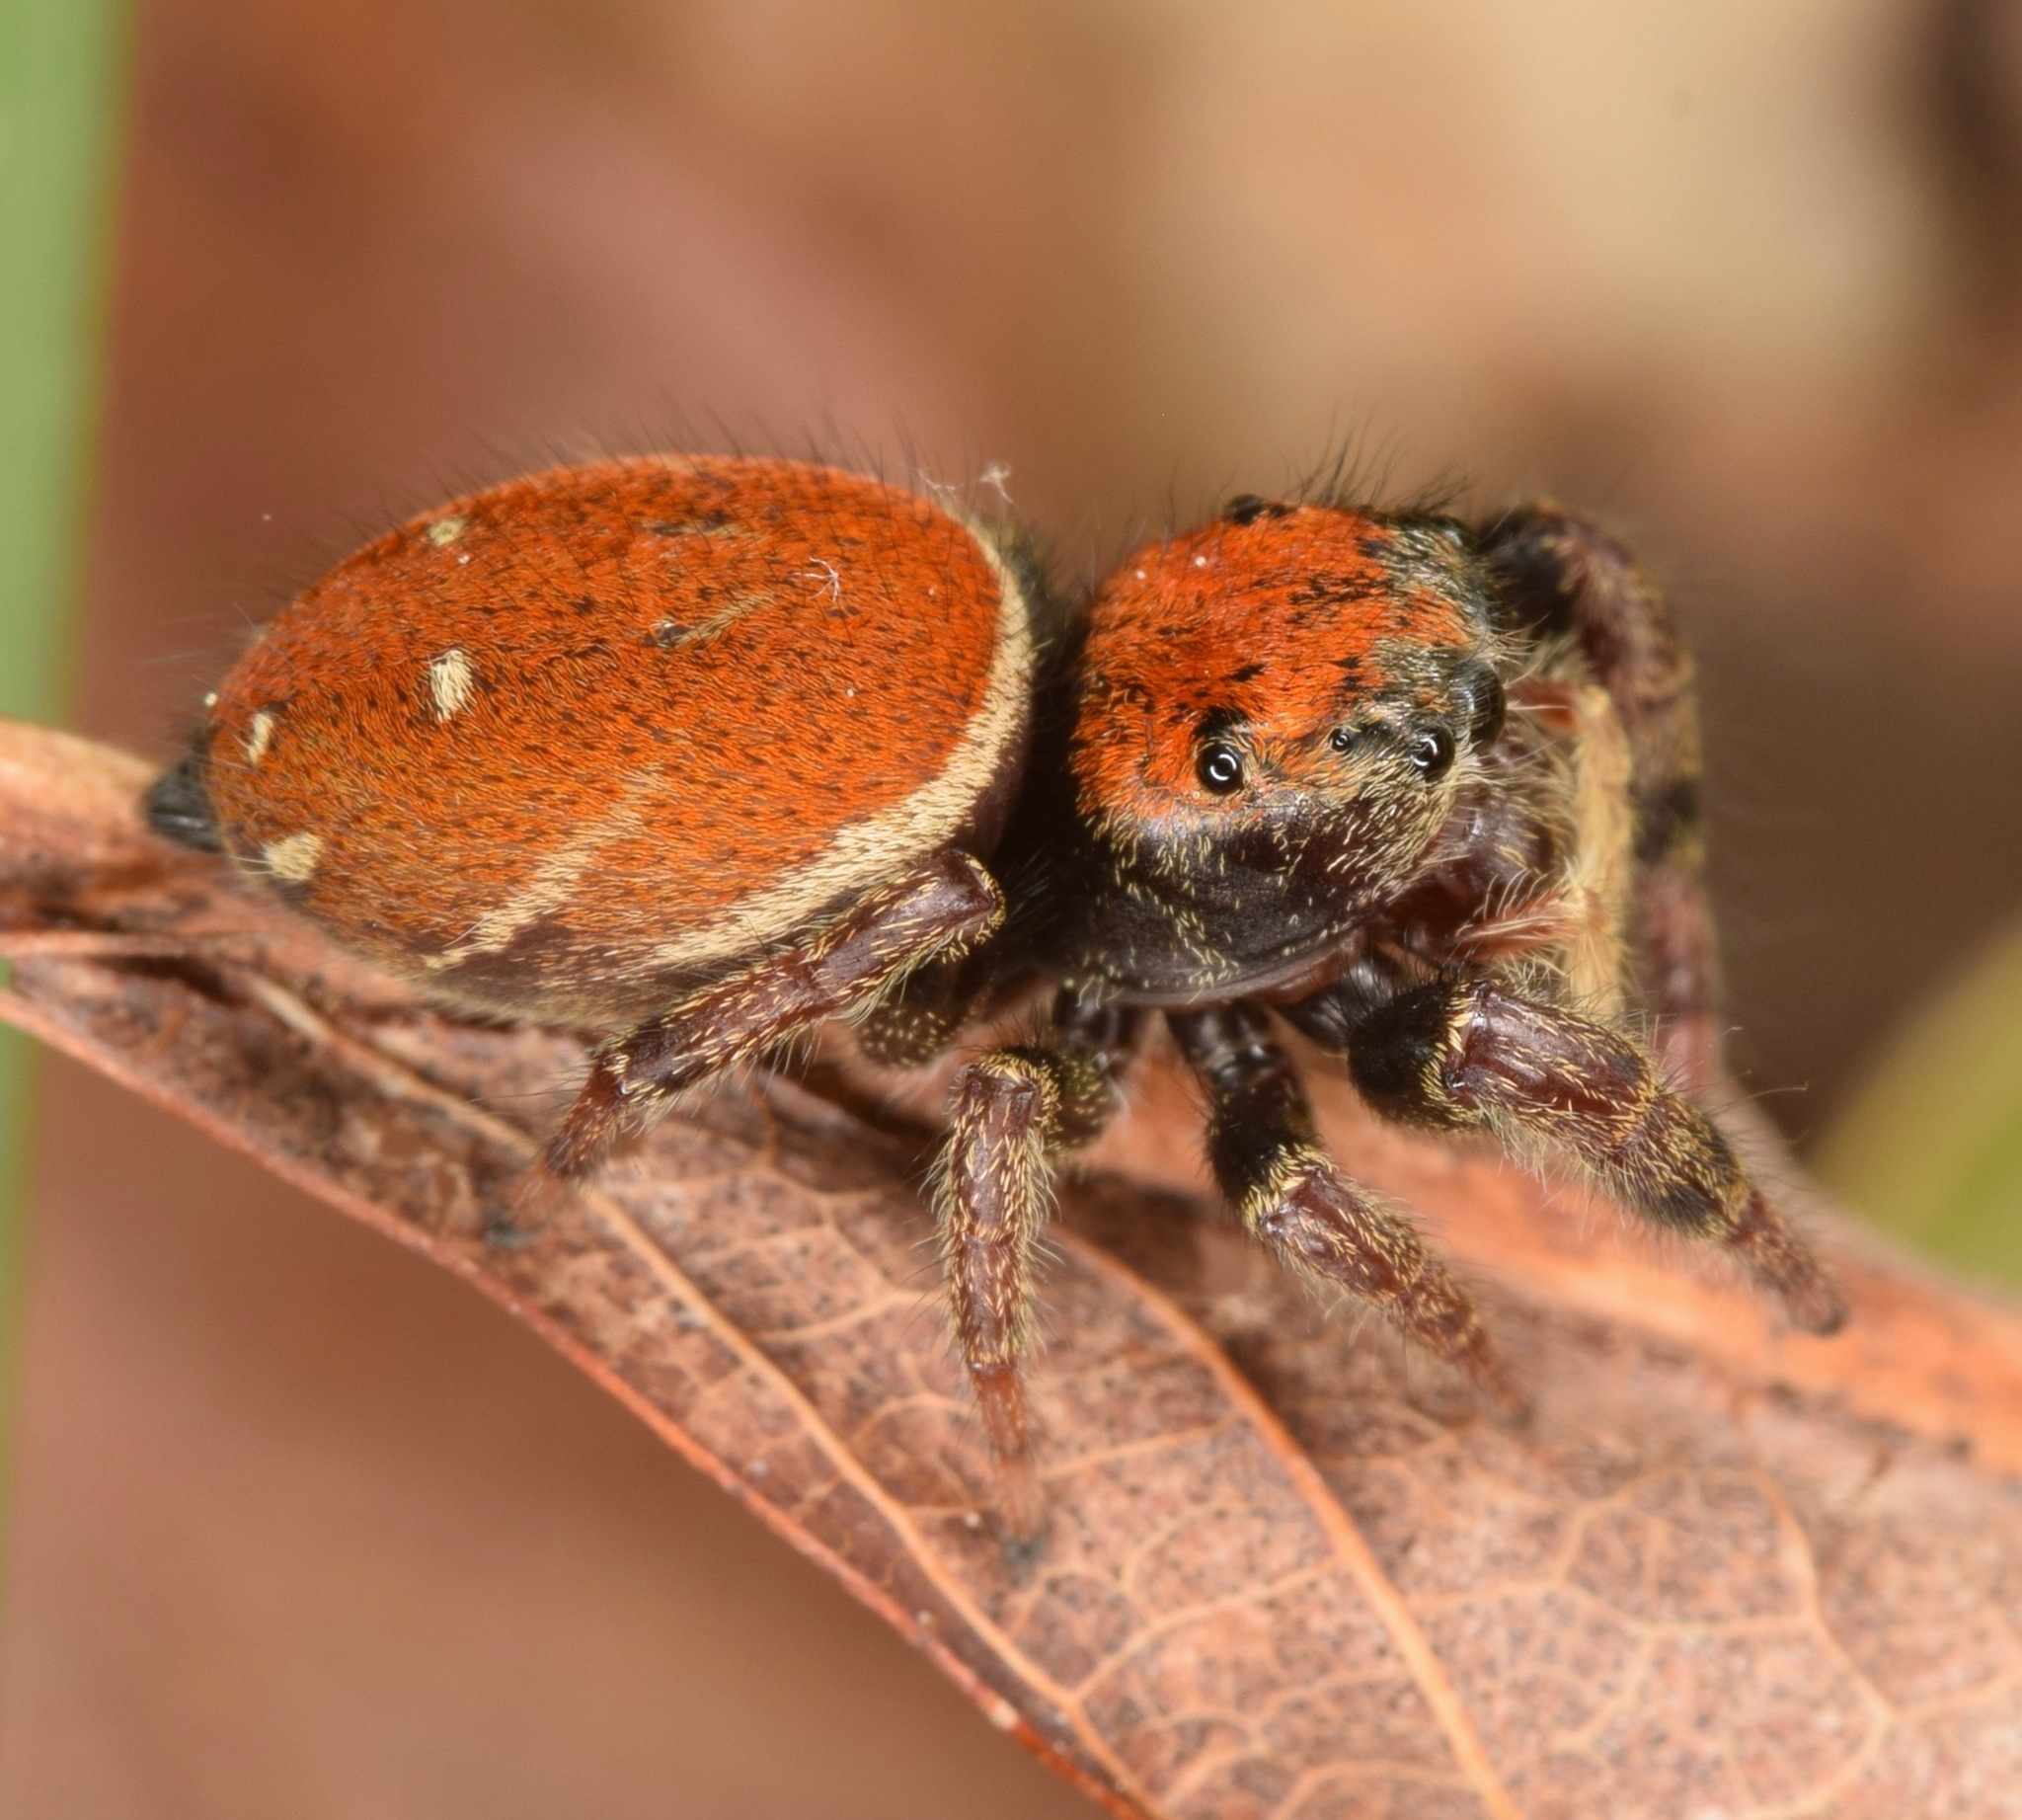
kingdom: Animalia
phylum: Arthropoda
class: Arachnida
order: Araneae
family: Salticidae
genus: Phidippus
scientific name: Phidippus whitmani
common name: Whitman's jumping spider
